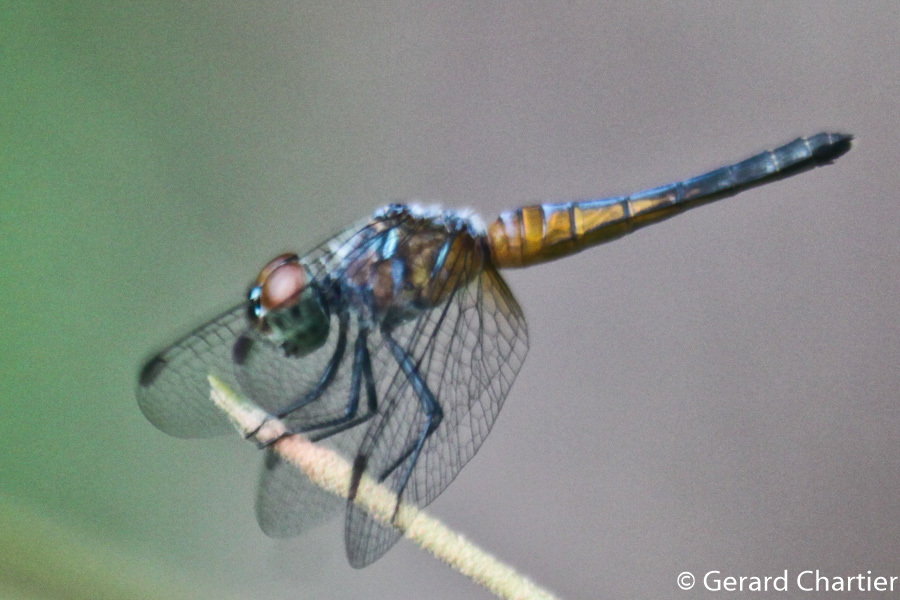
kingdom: Animalia
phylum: Arthropoda
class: Insecta
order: Odonata
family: Libellulidae
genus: Brachydiplax
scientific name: Brachydiplax chalybea
